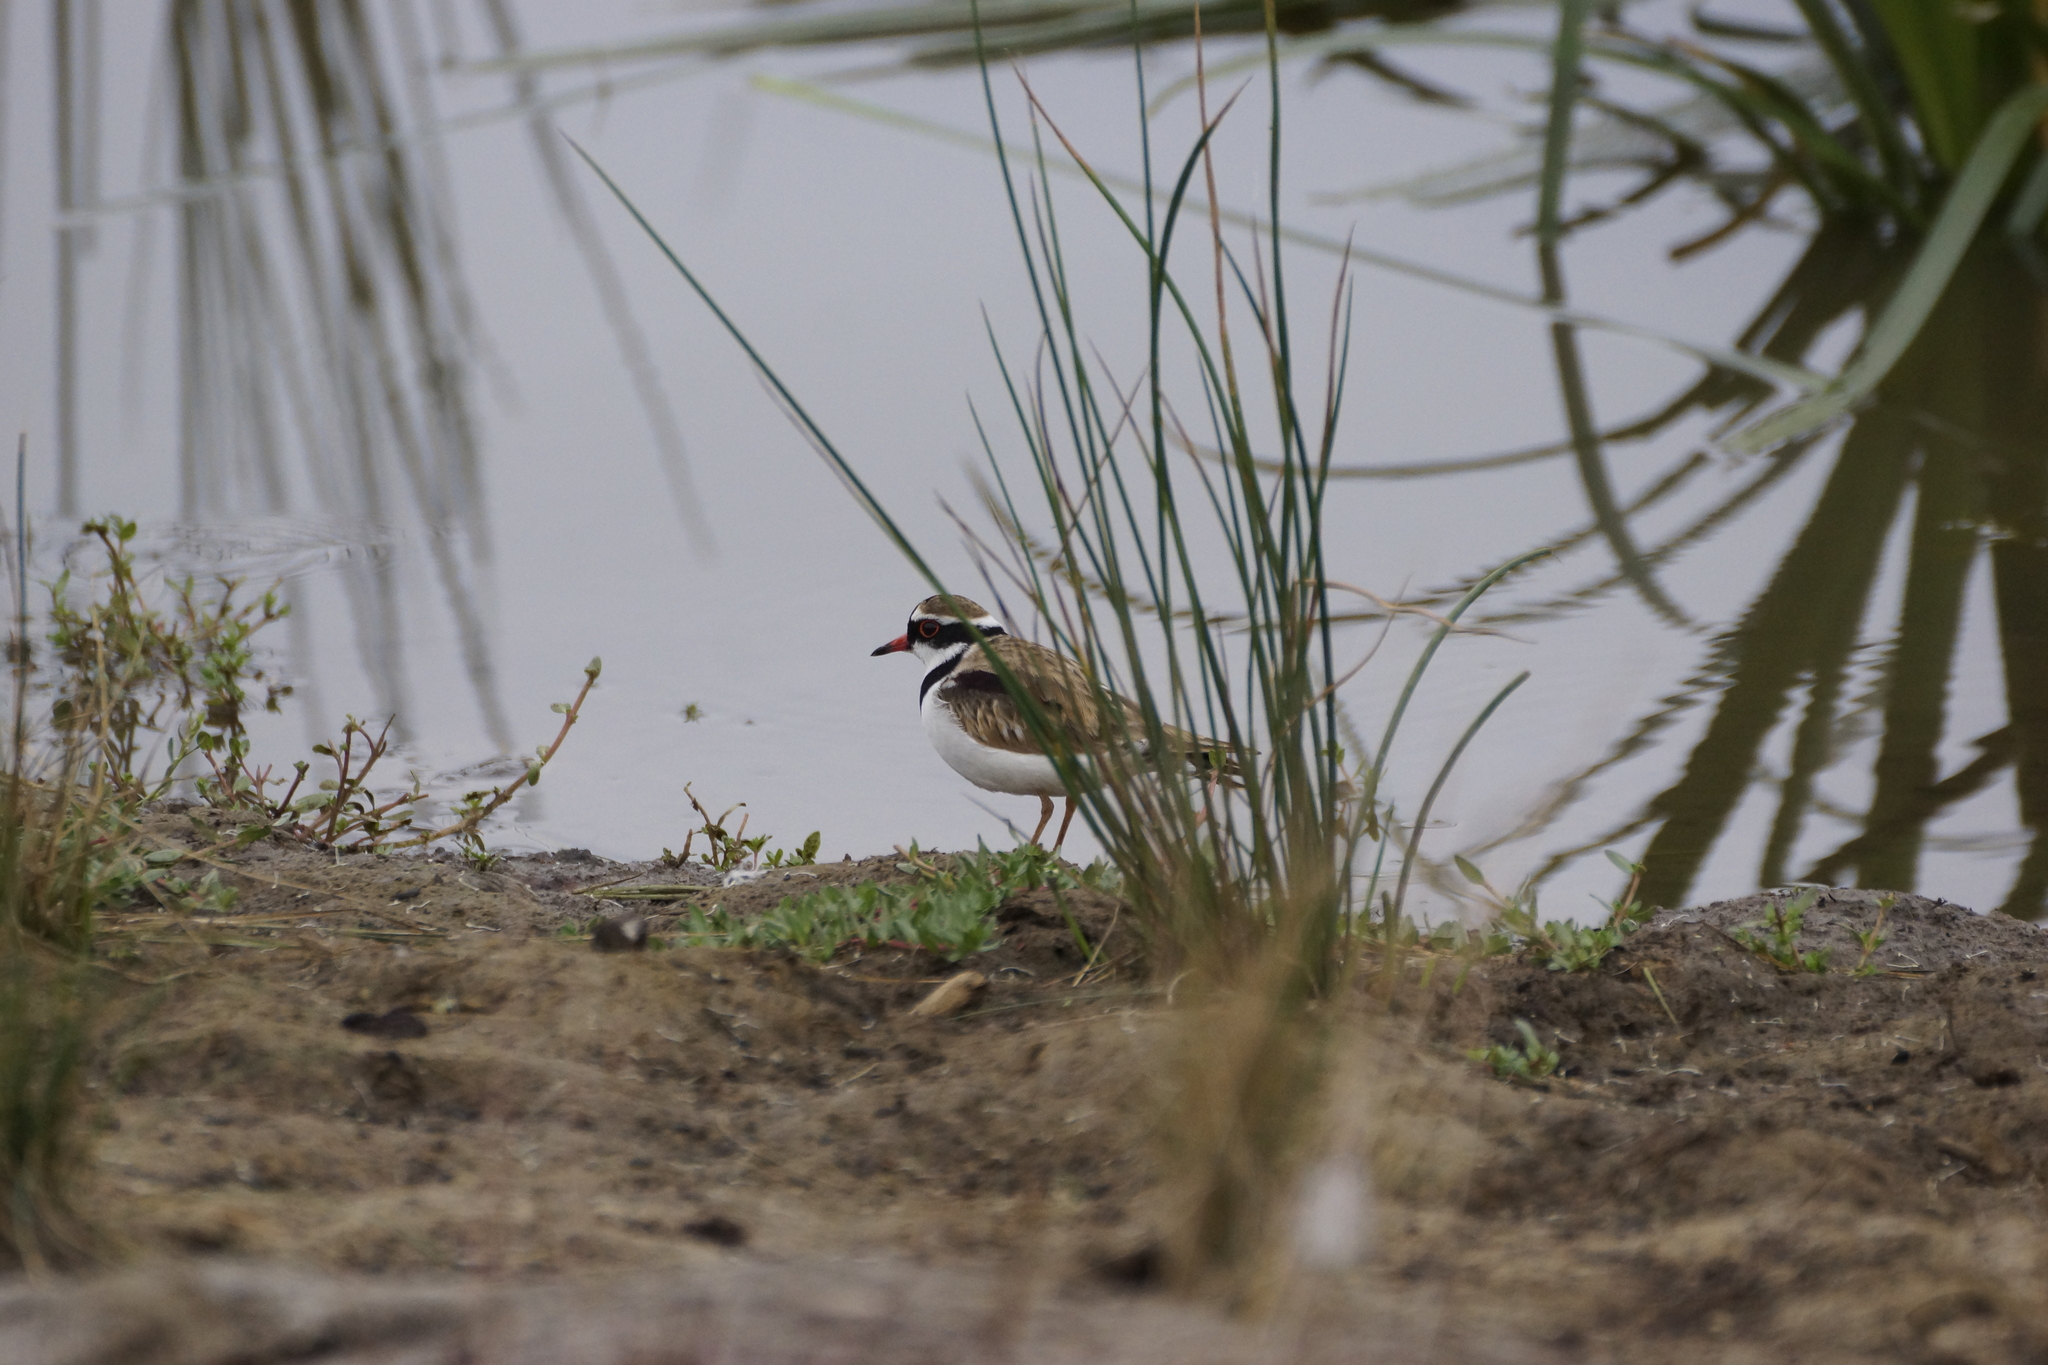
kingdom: Animalia
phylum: Chordata
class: Aves
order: Charadriiformes
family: Charadriidae
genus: Elseyornis
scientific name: Elseyornis melanops
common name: Black-fronted dotterel
